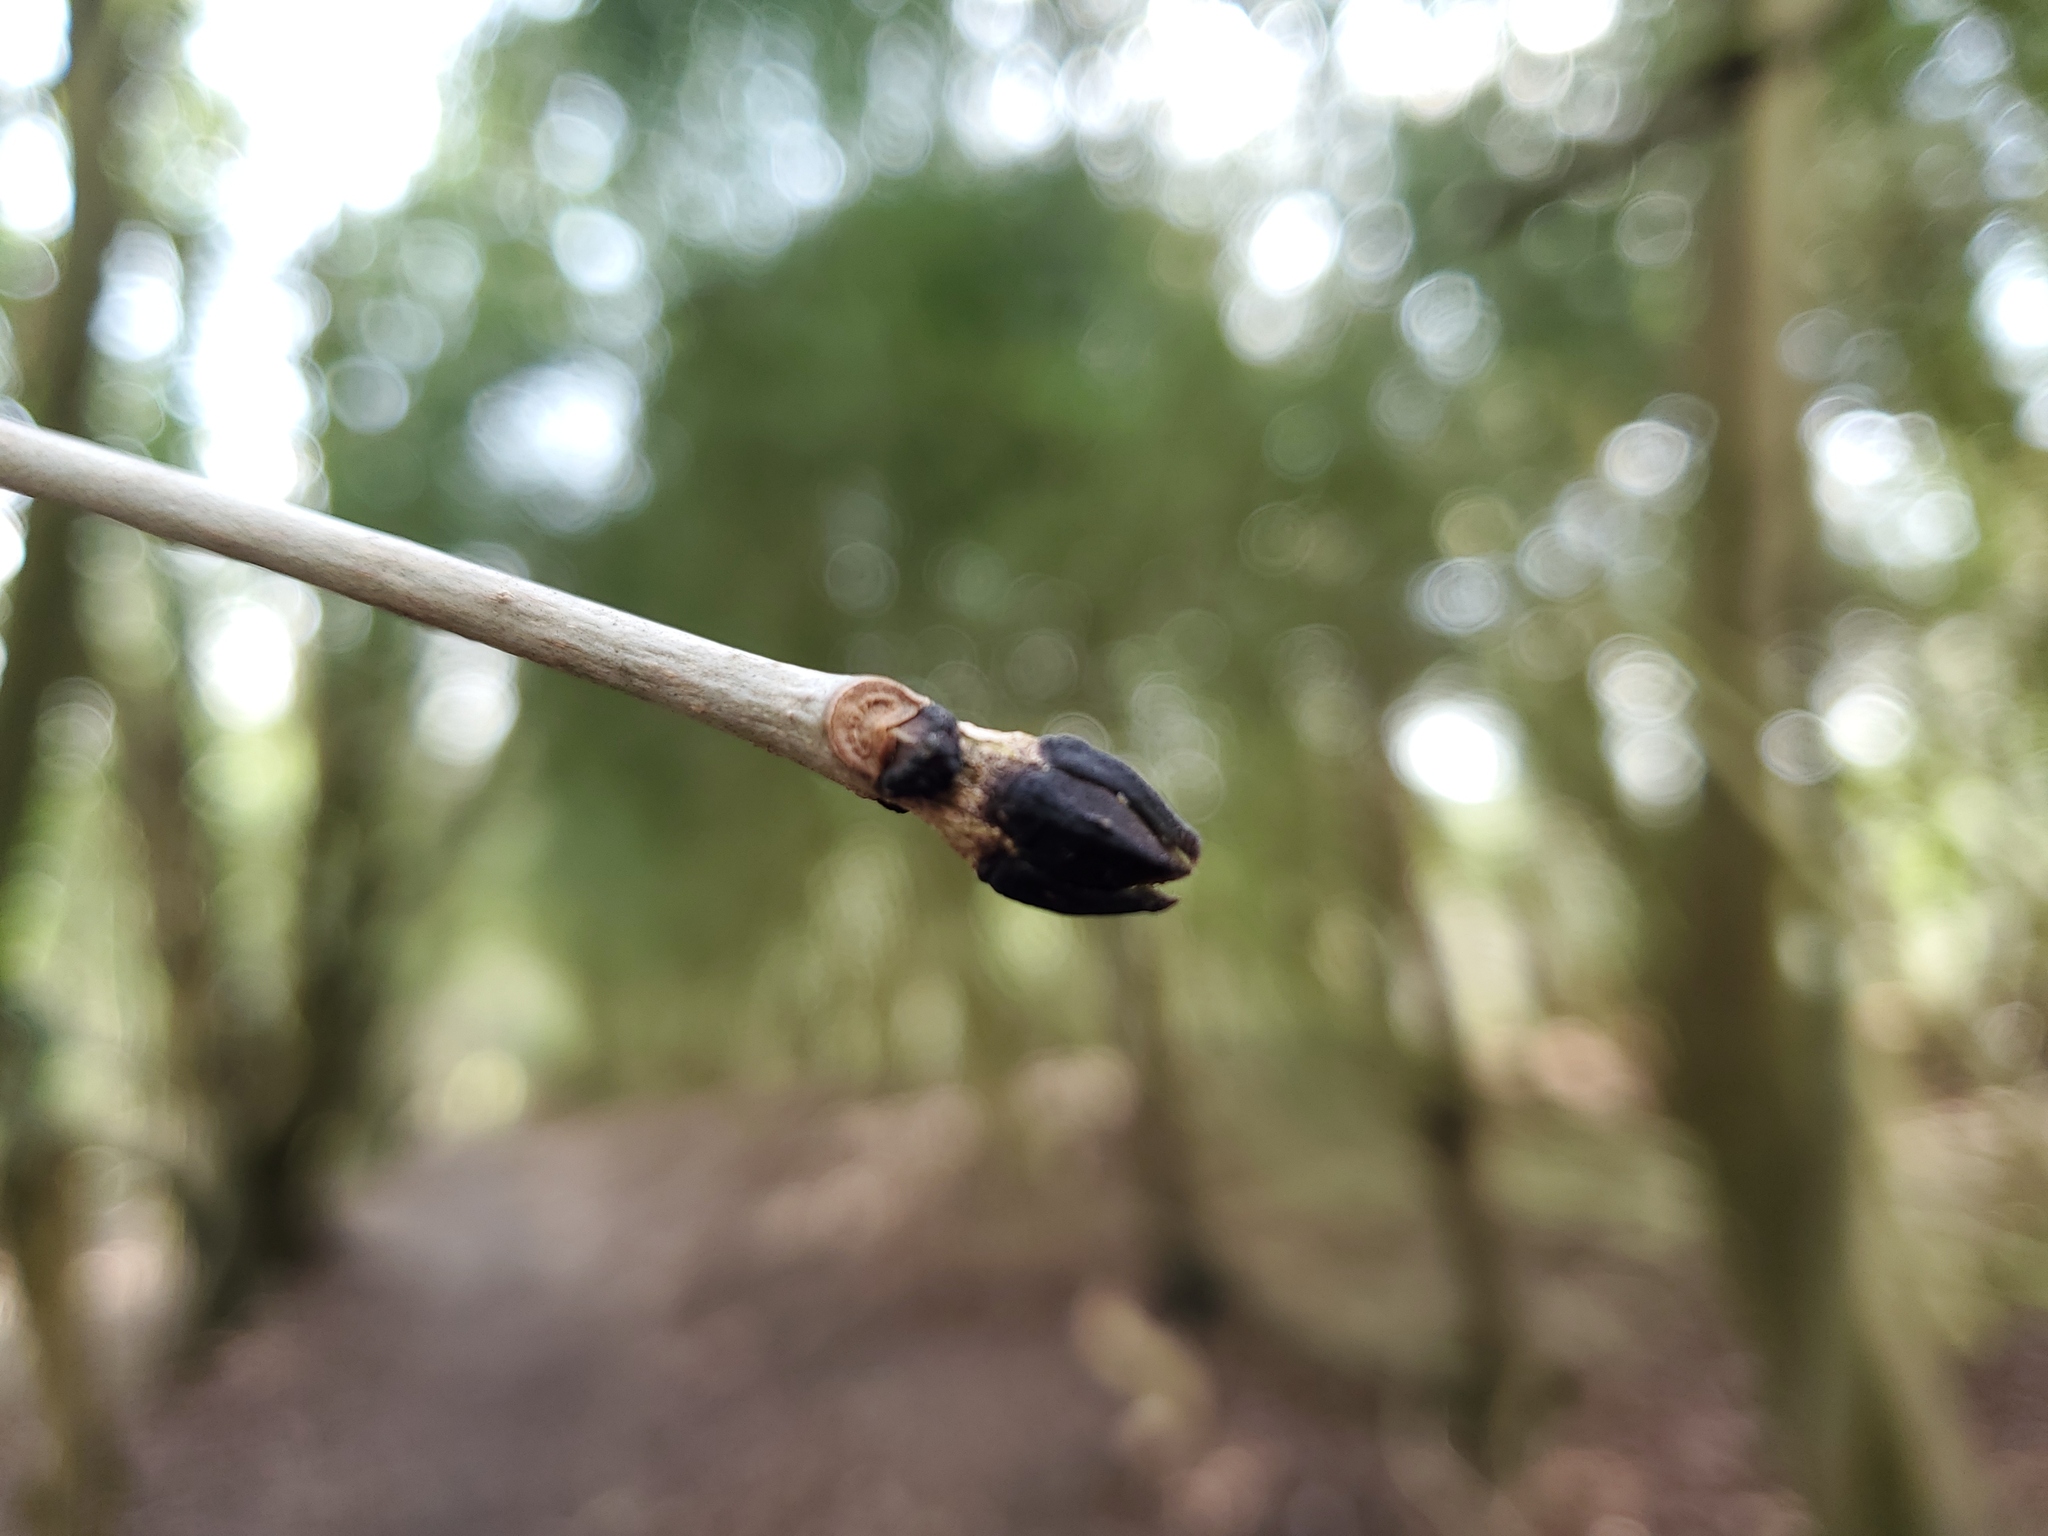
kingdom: Plantae
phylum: Tracheophyta
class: Magnoliopsida
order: Lamiales
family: Oleaceae
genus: Fraxinus
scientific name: Fraxinus excelsior
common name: European ash
